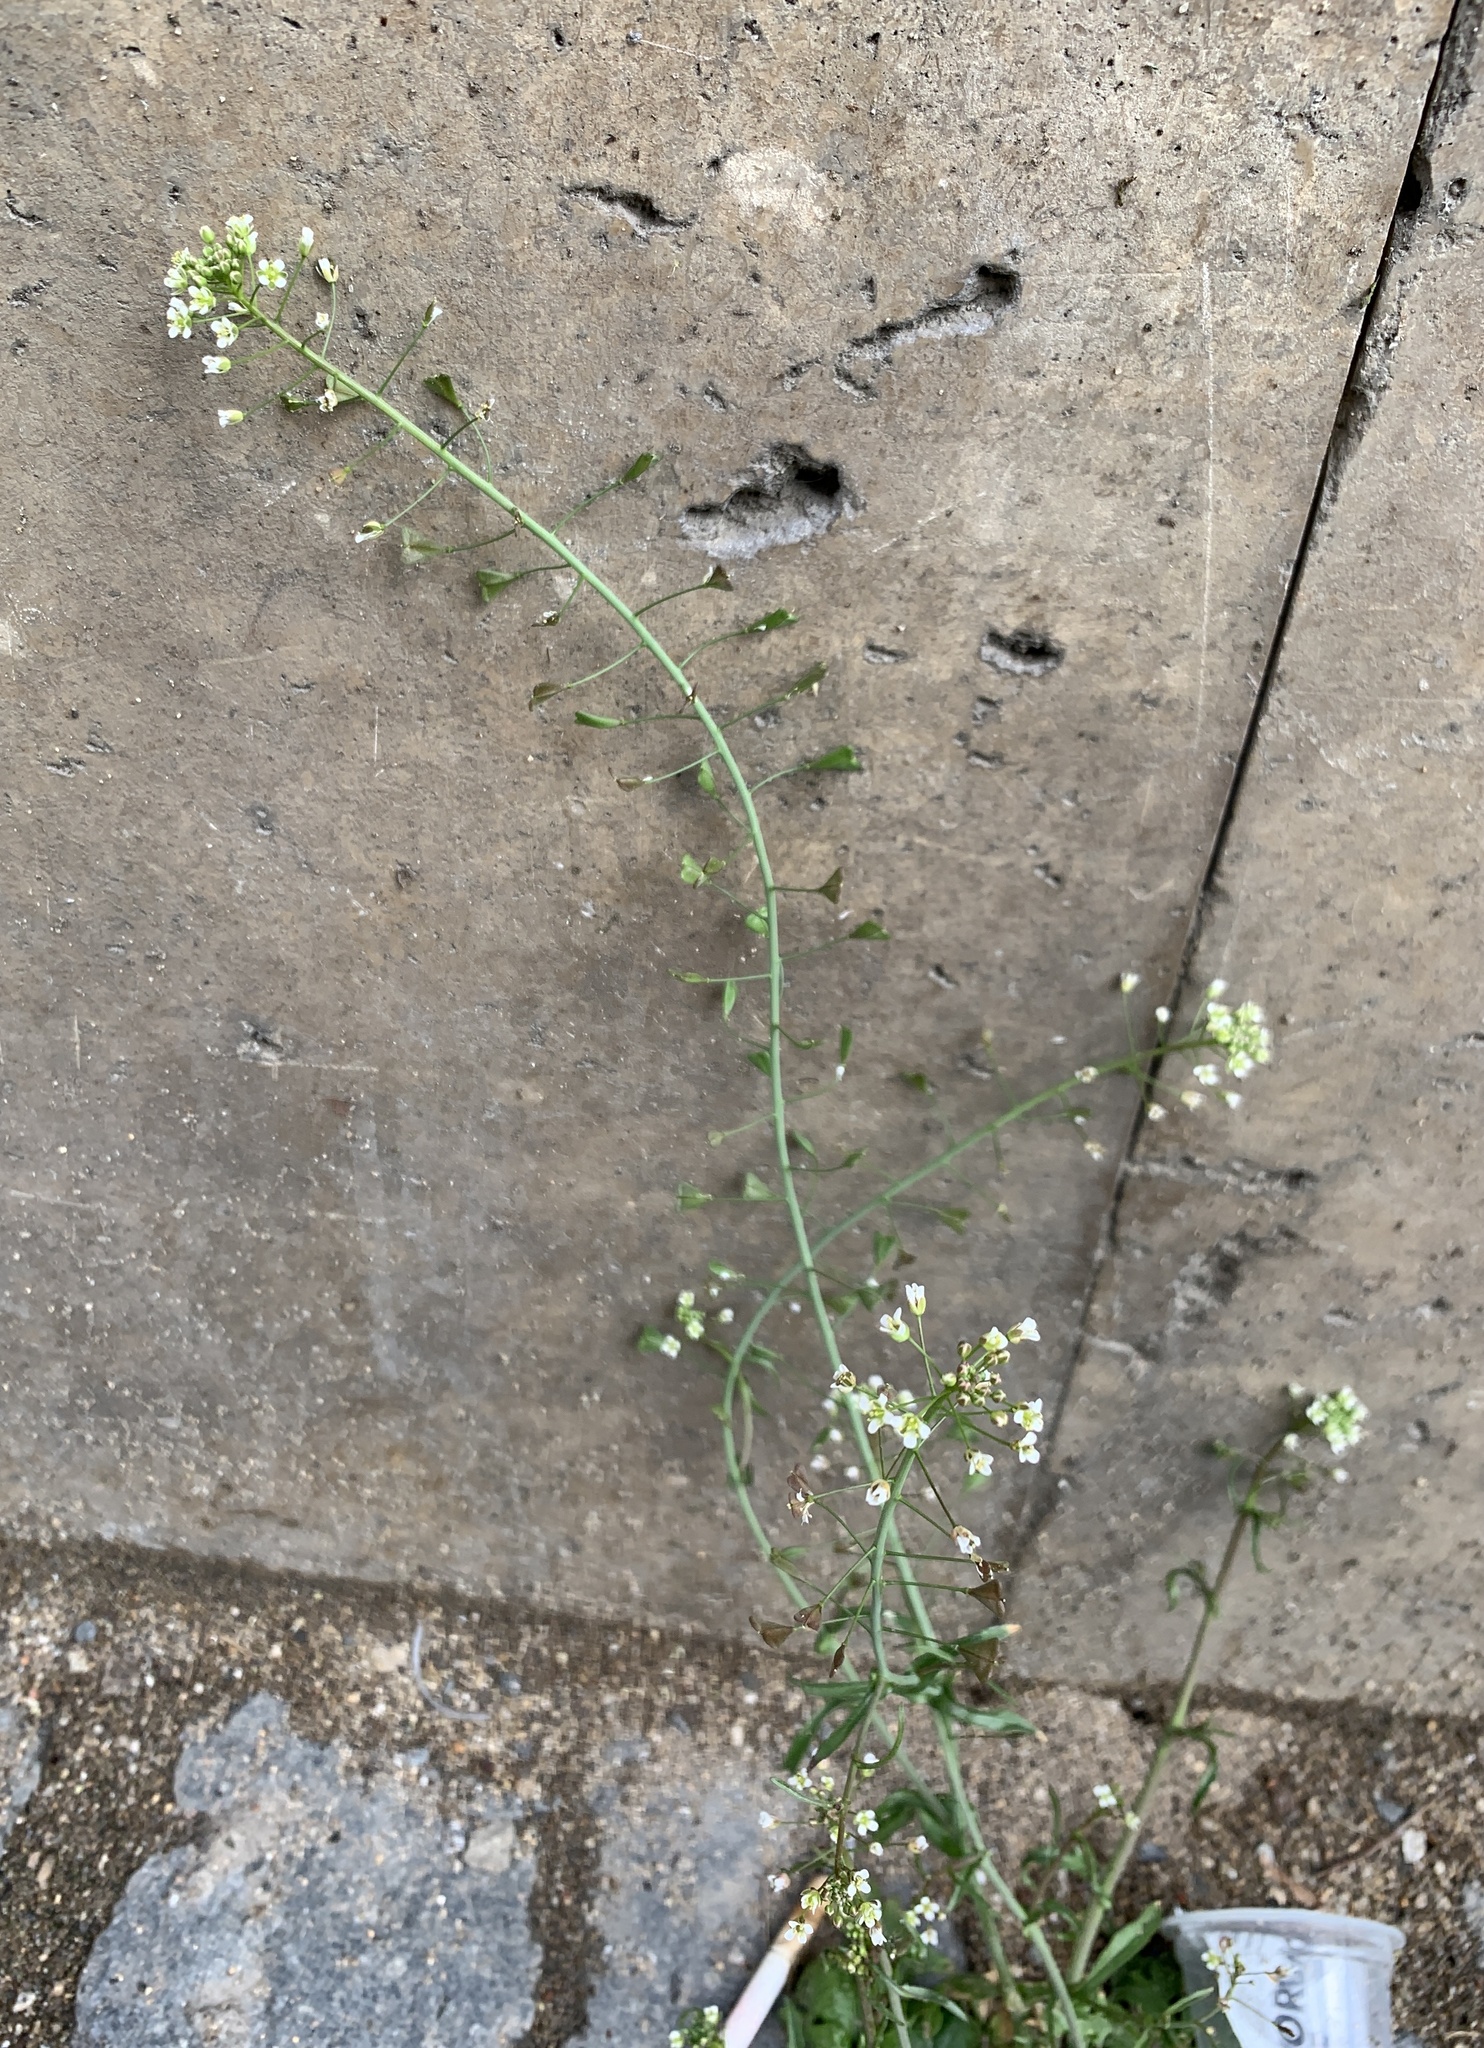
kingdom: Plantae
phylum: Tracheophyta
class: Magnoliopsida
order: Brassicales
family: Brassicaceae
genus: Capsella
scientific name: Capsella bursa-pastoris
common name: Shepherd's purse
